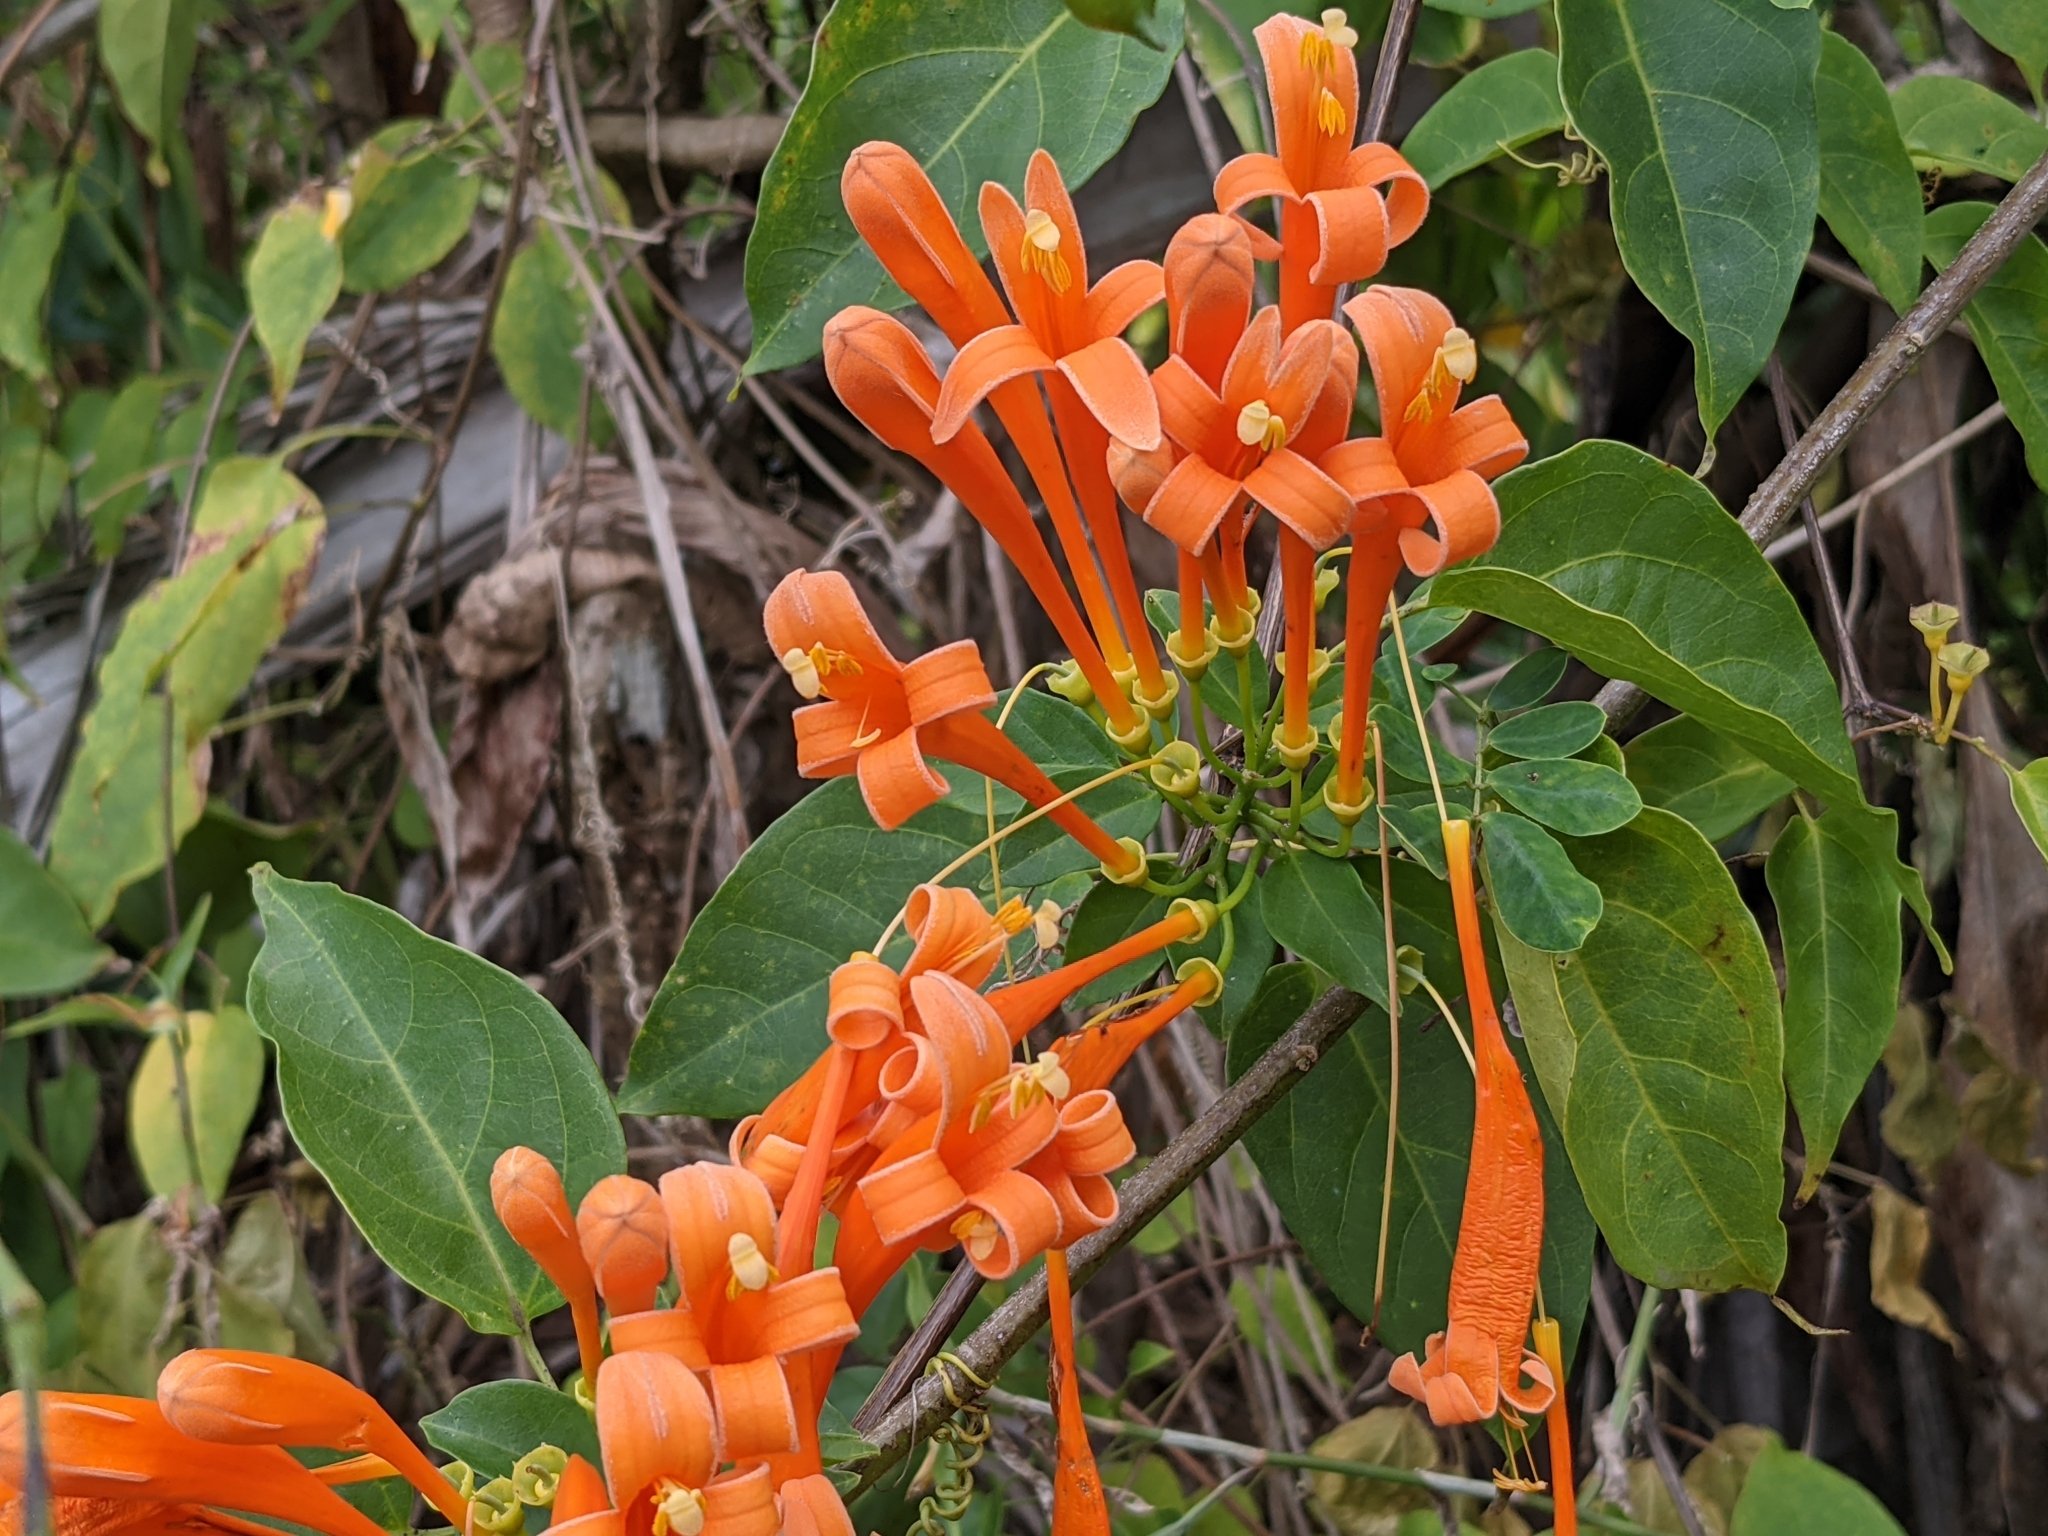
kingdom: Plantae
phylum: Tracheophyta
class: Magnoliopsida
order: Lamiales
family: Bignoniaceae
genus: Pyrostegia
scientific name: Pyrostegia venusta
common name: Flamevine
